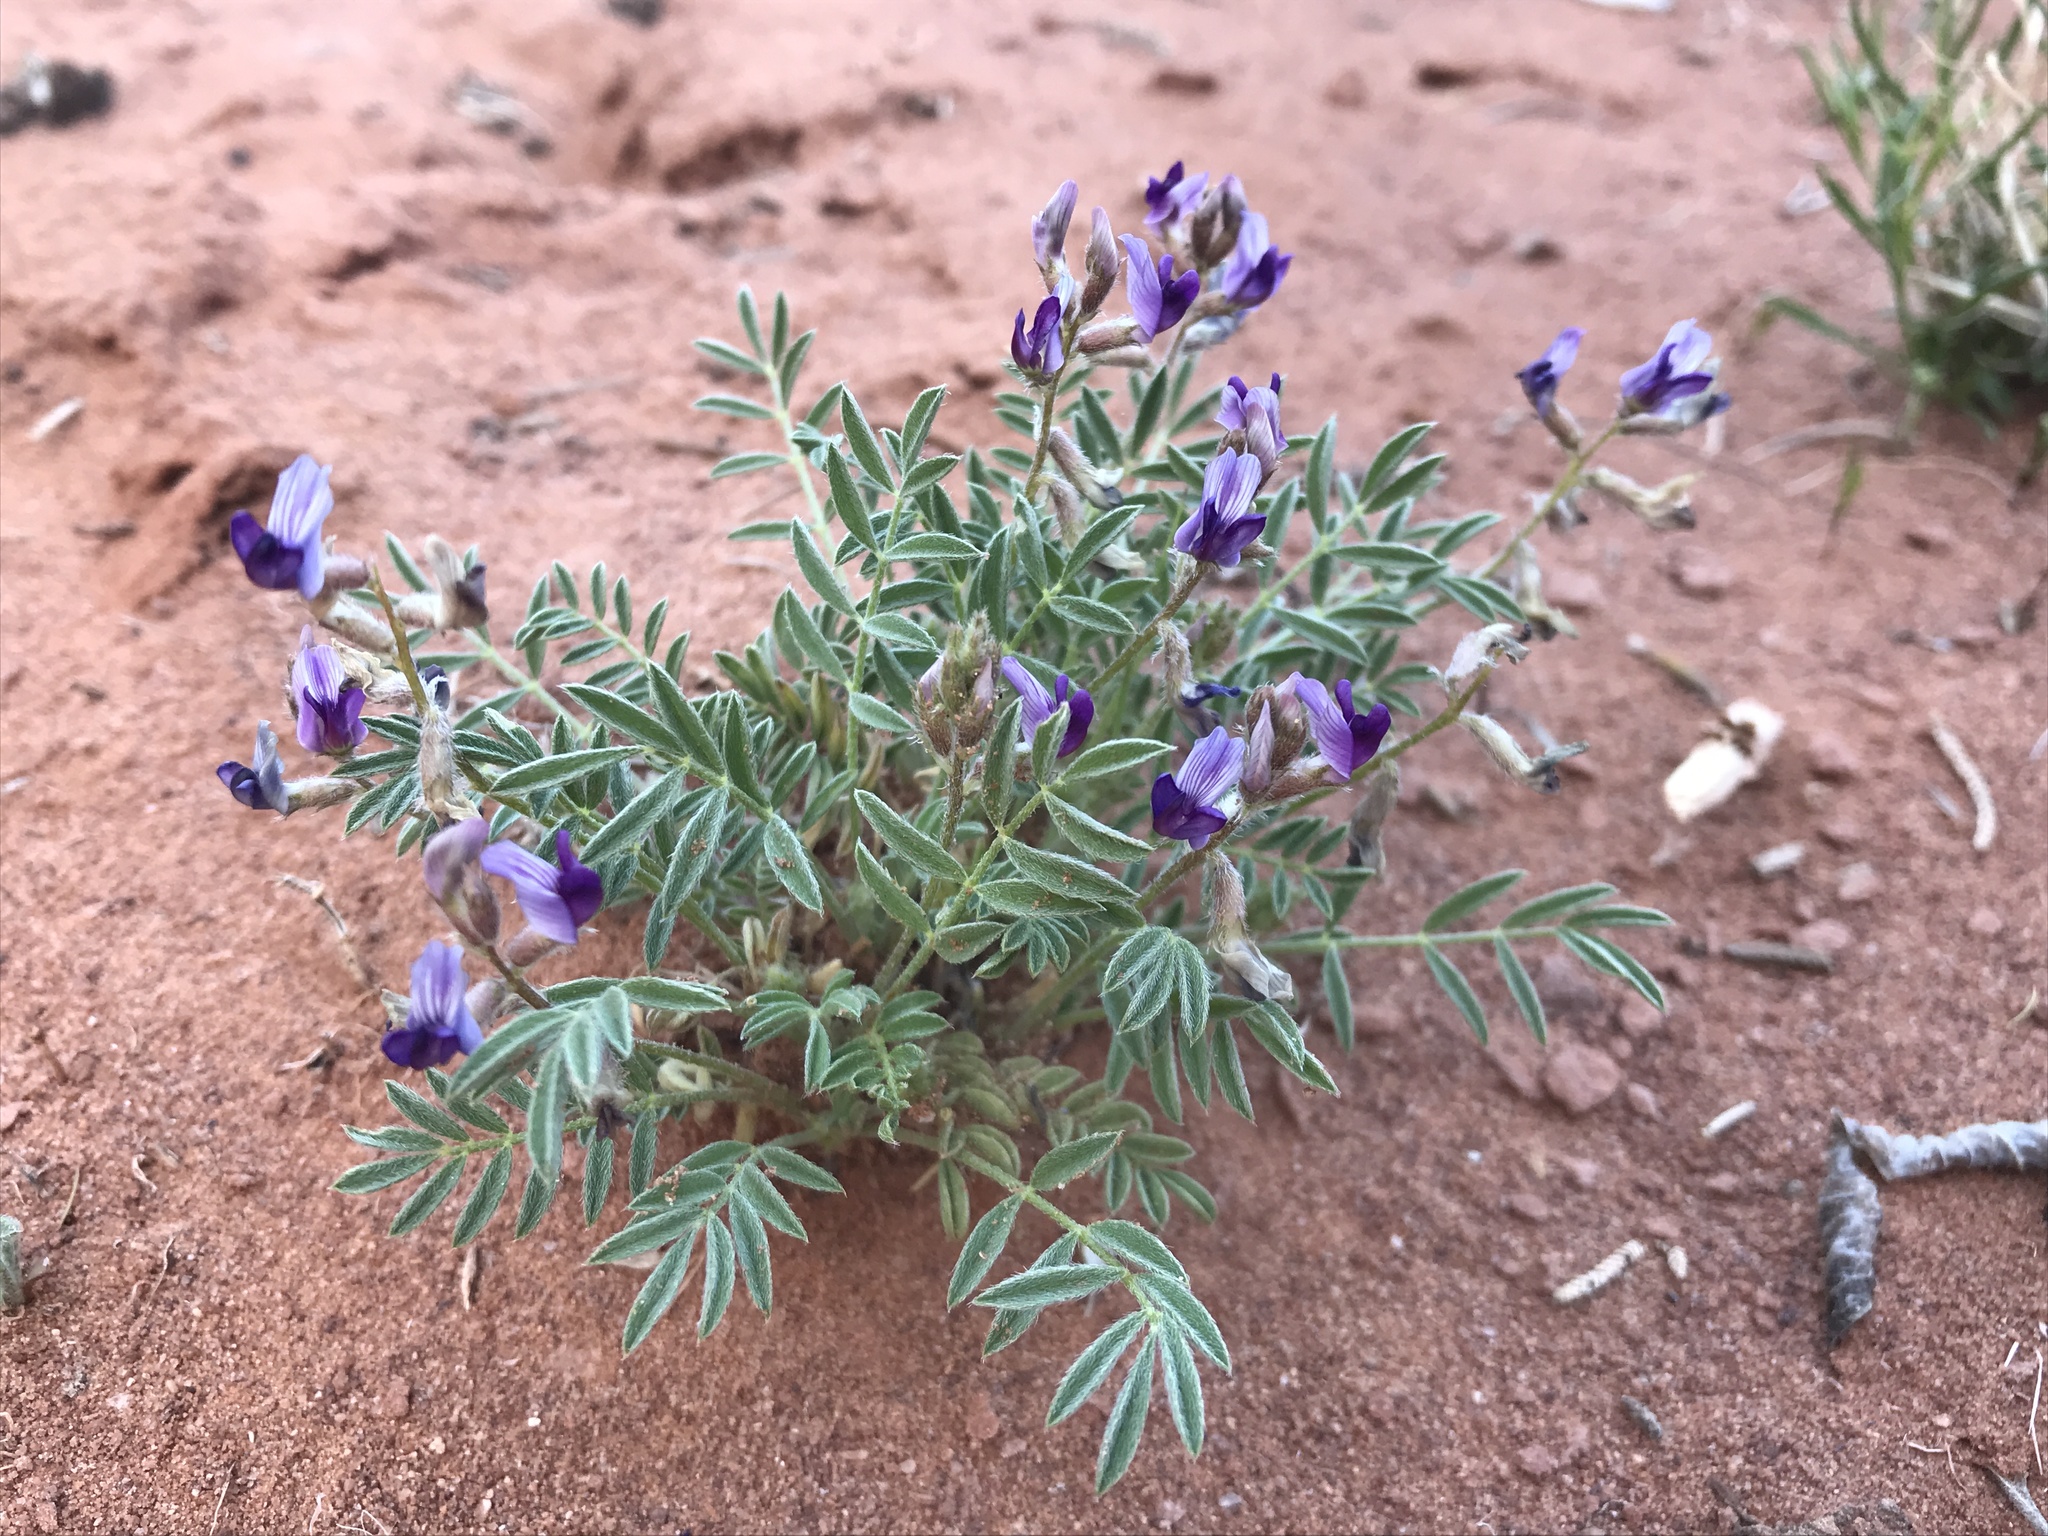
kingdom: Plantae
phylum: Tracheophyta
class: Magnoliopsida
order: Fabales
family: Fabaceae
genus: Astragalus
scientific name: Astragalus desperatus
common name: Rimrock milk-vetch
